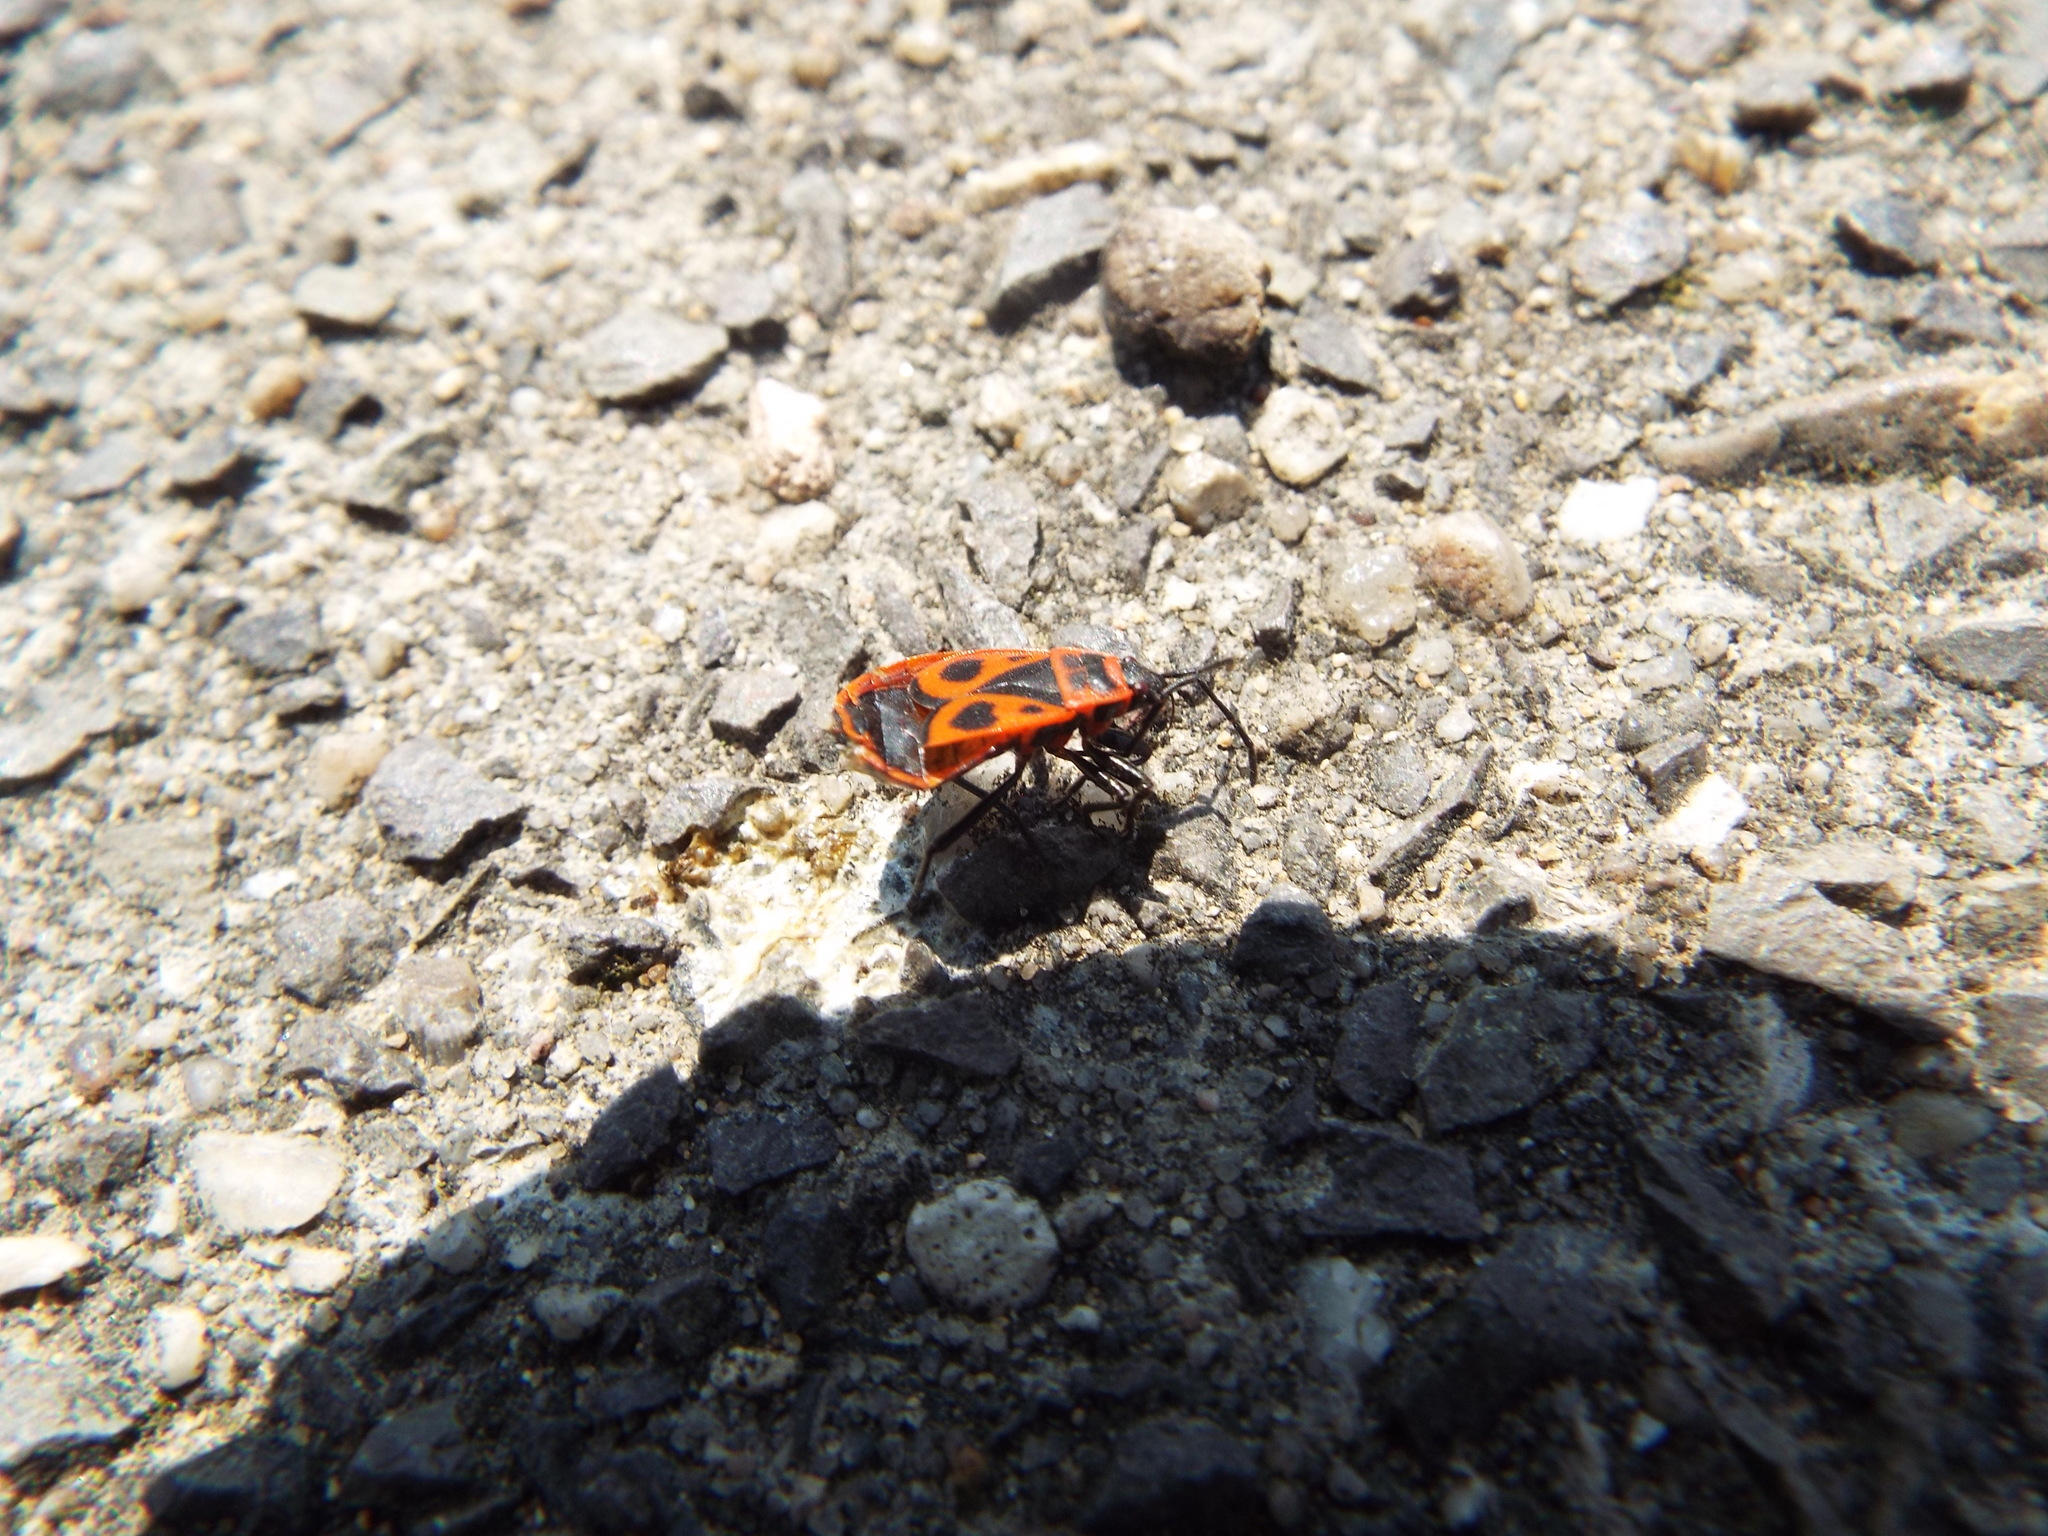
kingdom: Animalia
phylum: Arthropoda
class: Insecta
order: Hemiptera
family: Pyrrhocoridae
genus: Pyrrhocoris
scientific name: Pyrrhocoris apterus
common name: Firebug
